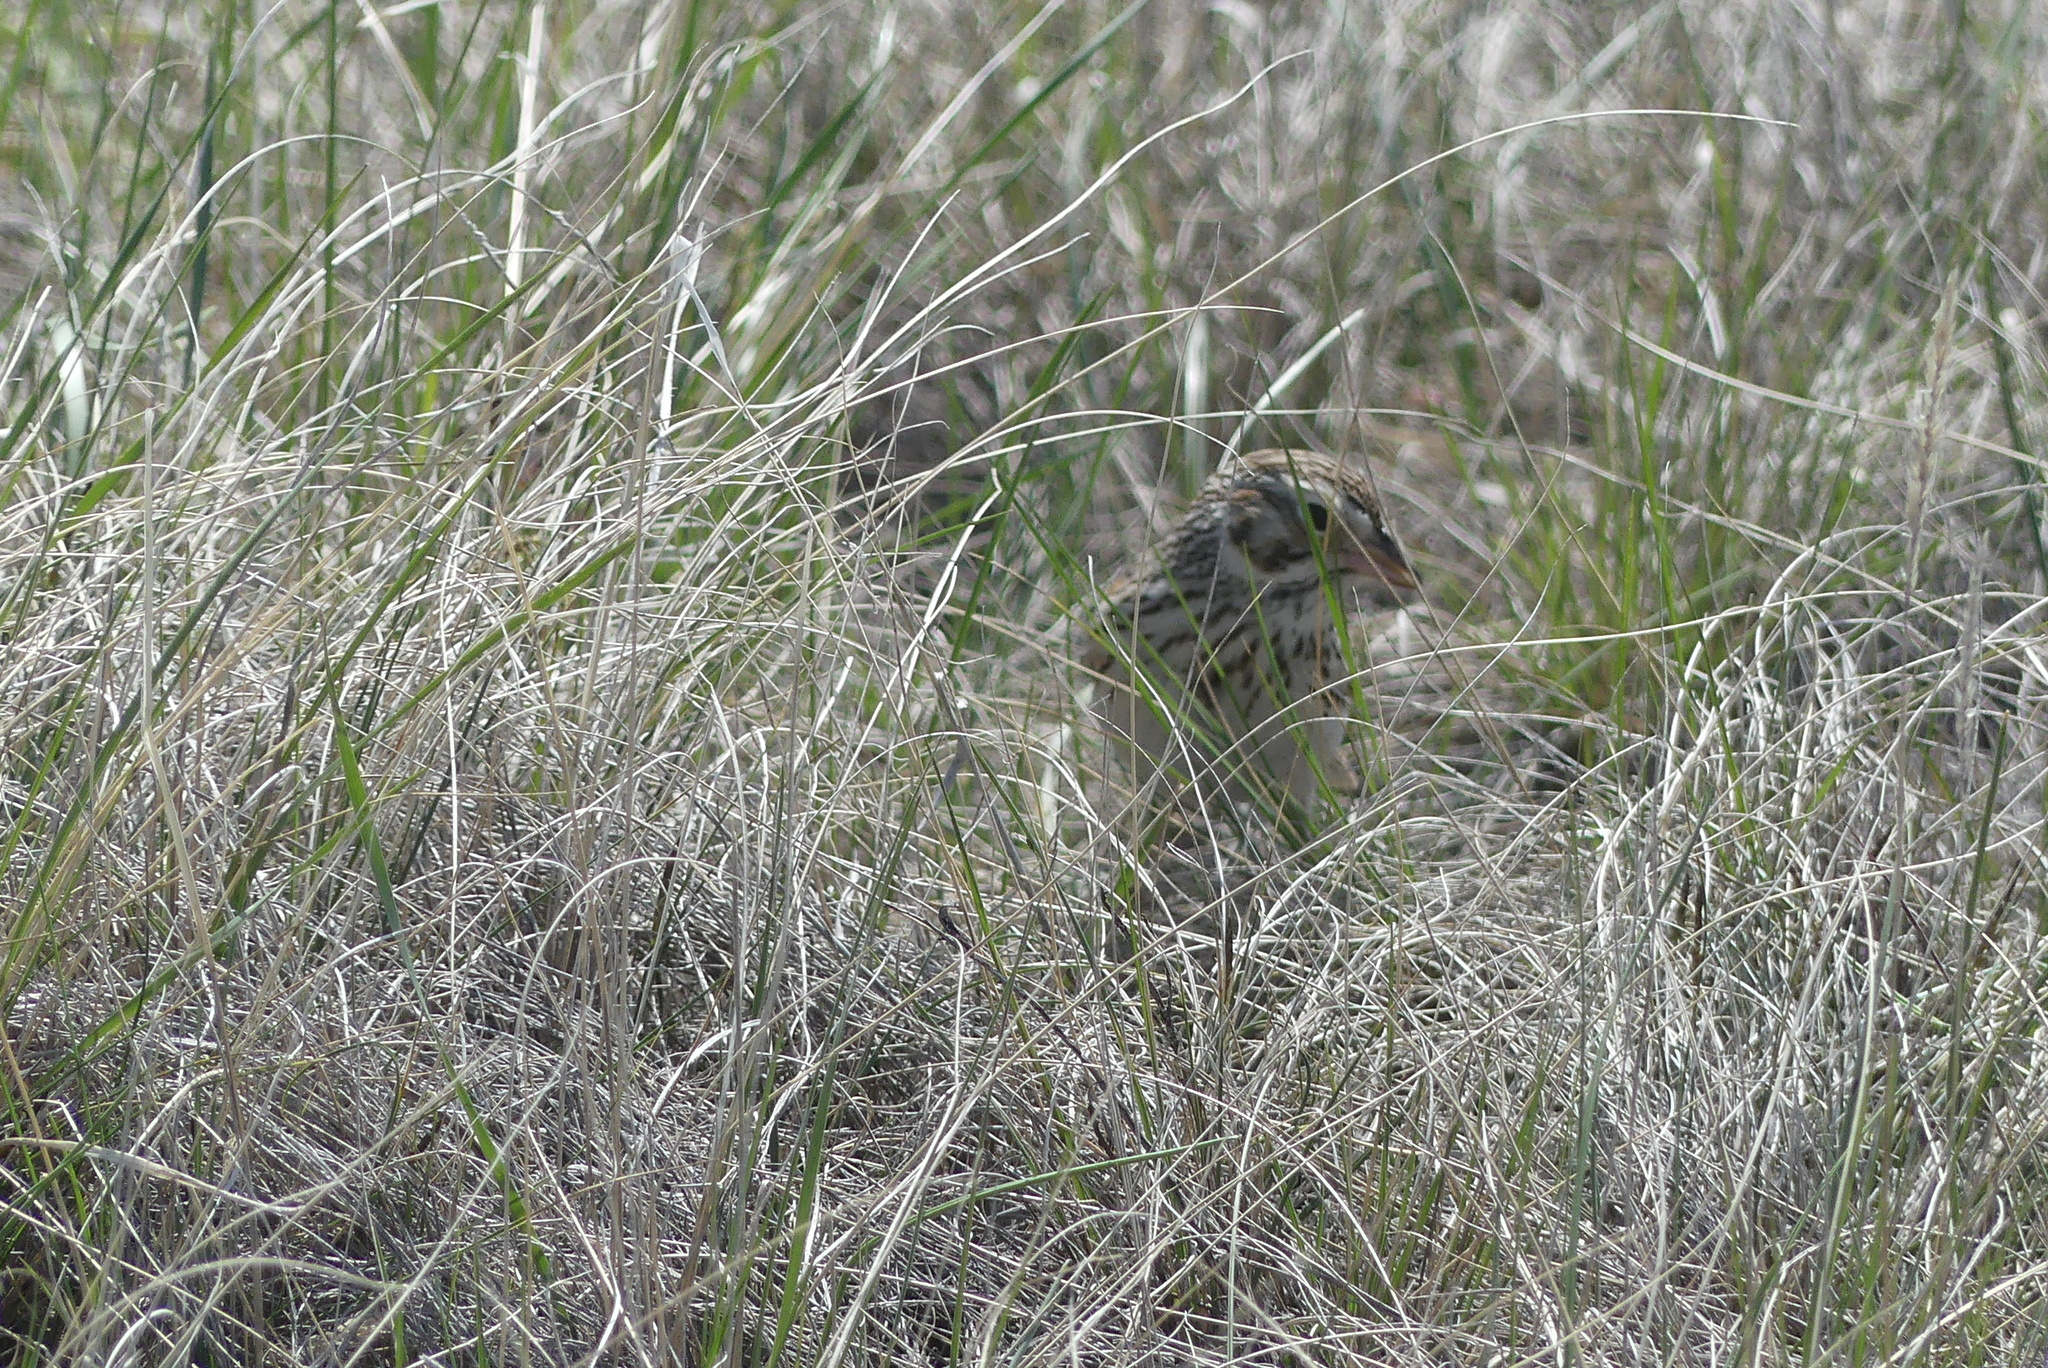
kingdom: Animalia
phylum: Chordata
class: Aves
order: Passeriformes
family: Passerellidae
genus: Pooecetes
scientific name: Pooecetes gramineus
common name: Vesper sparrow
